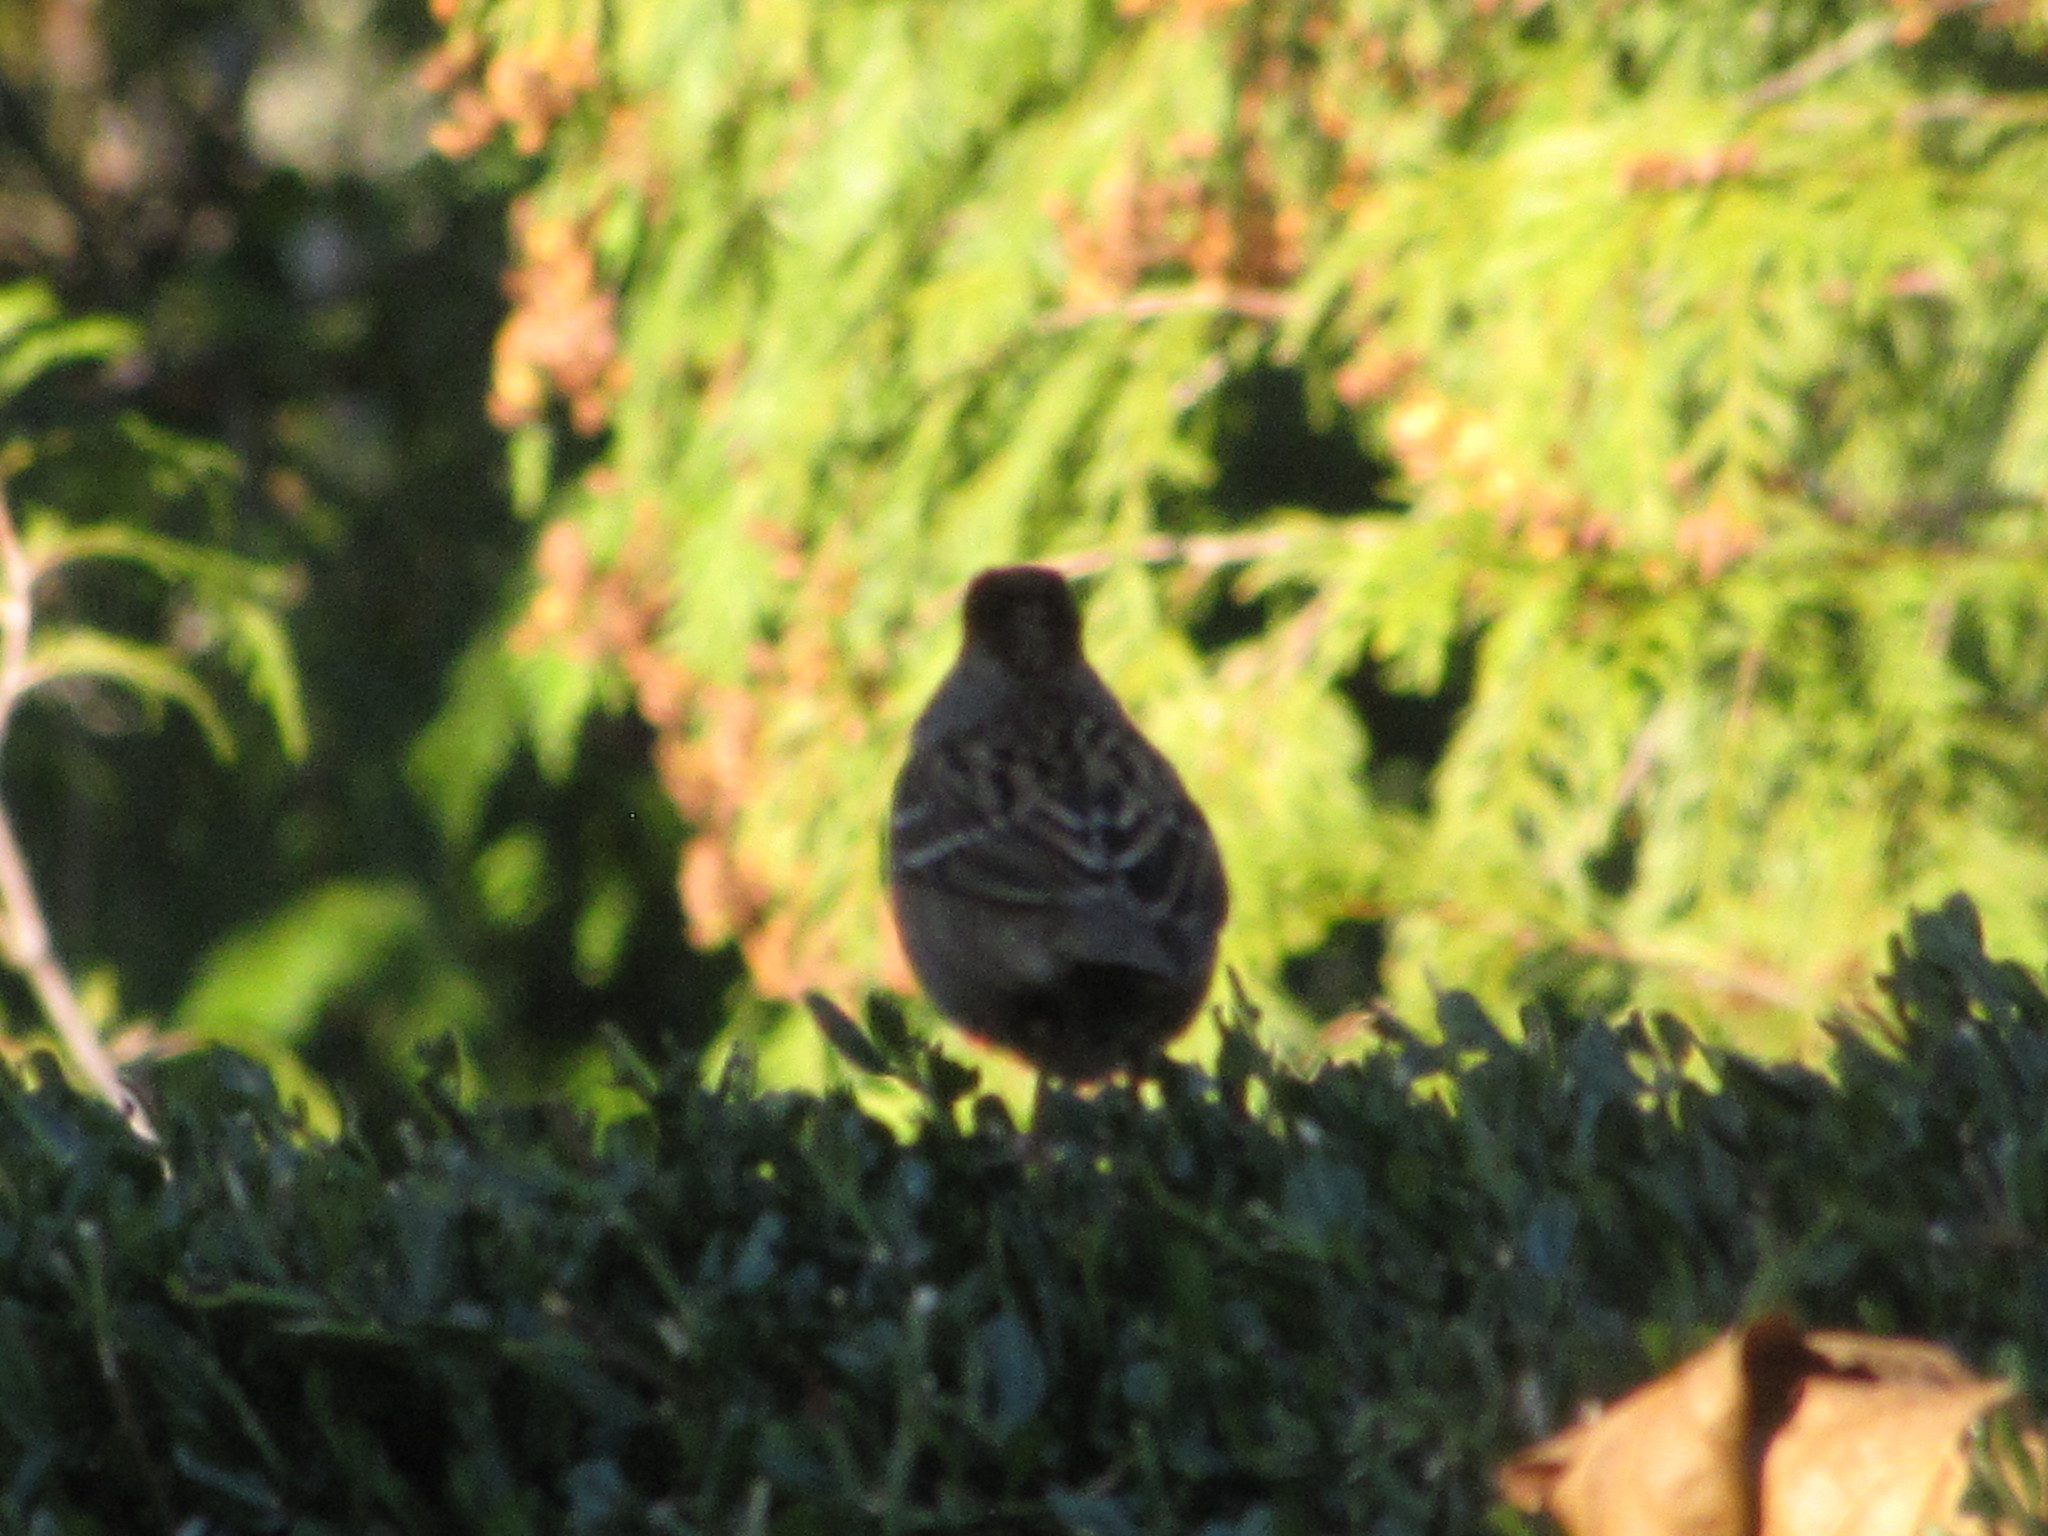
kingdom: Animalia
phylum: Chordata
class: Aves
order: Passeriformes
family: Passerellidae
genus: Zonotrichia
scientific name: Zonotrichia atricapilla
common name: Golden-crowned sparrow
